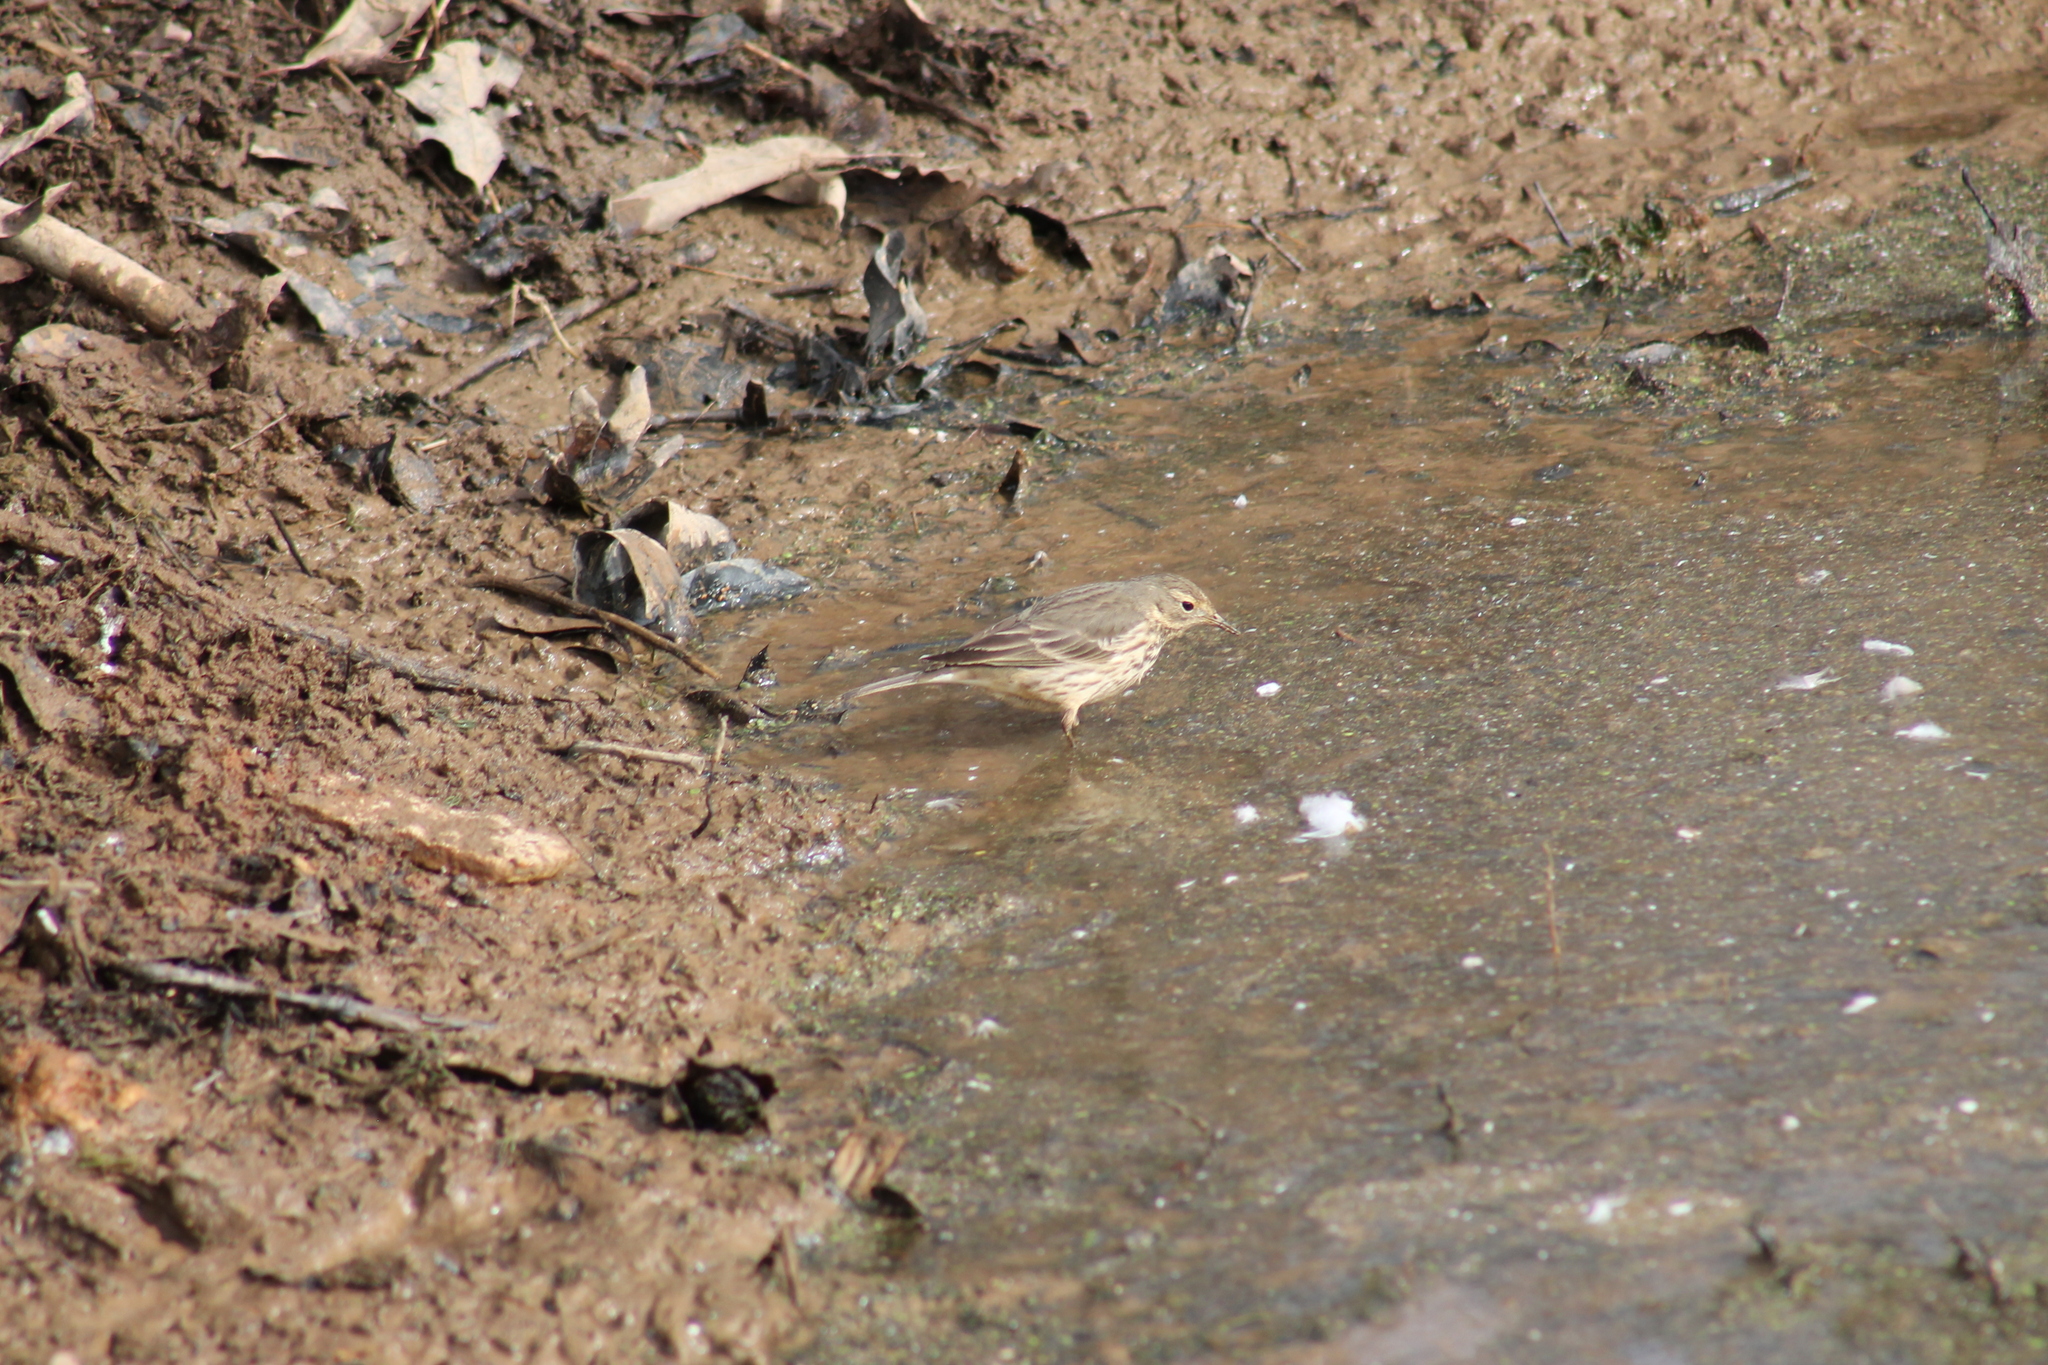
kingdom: Animalia
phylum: Chordata
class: Aves
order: Passeriformes
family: Motacillidae
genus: Anthus
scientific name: Anthus rubescens
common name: Buff-bellied pipit
